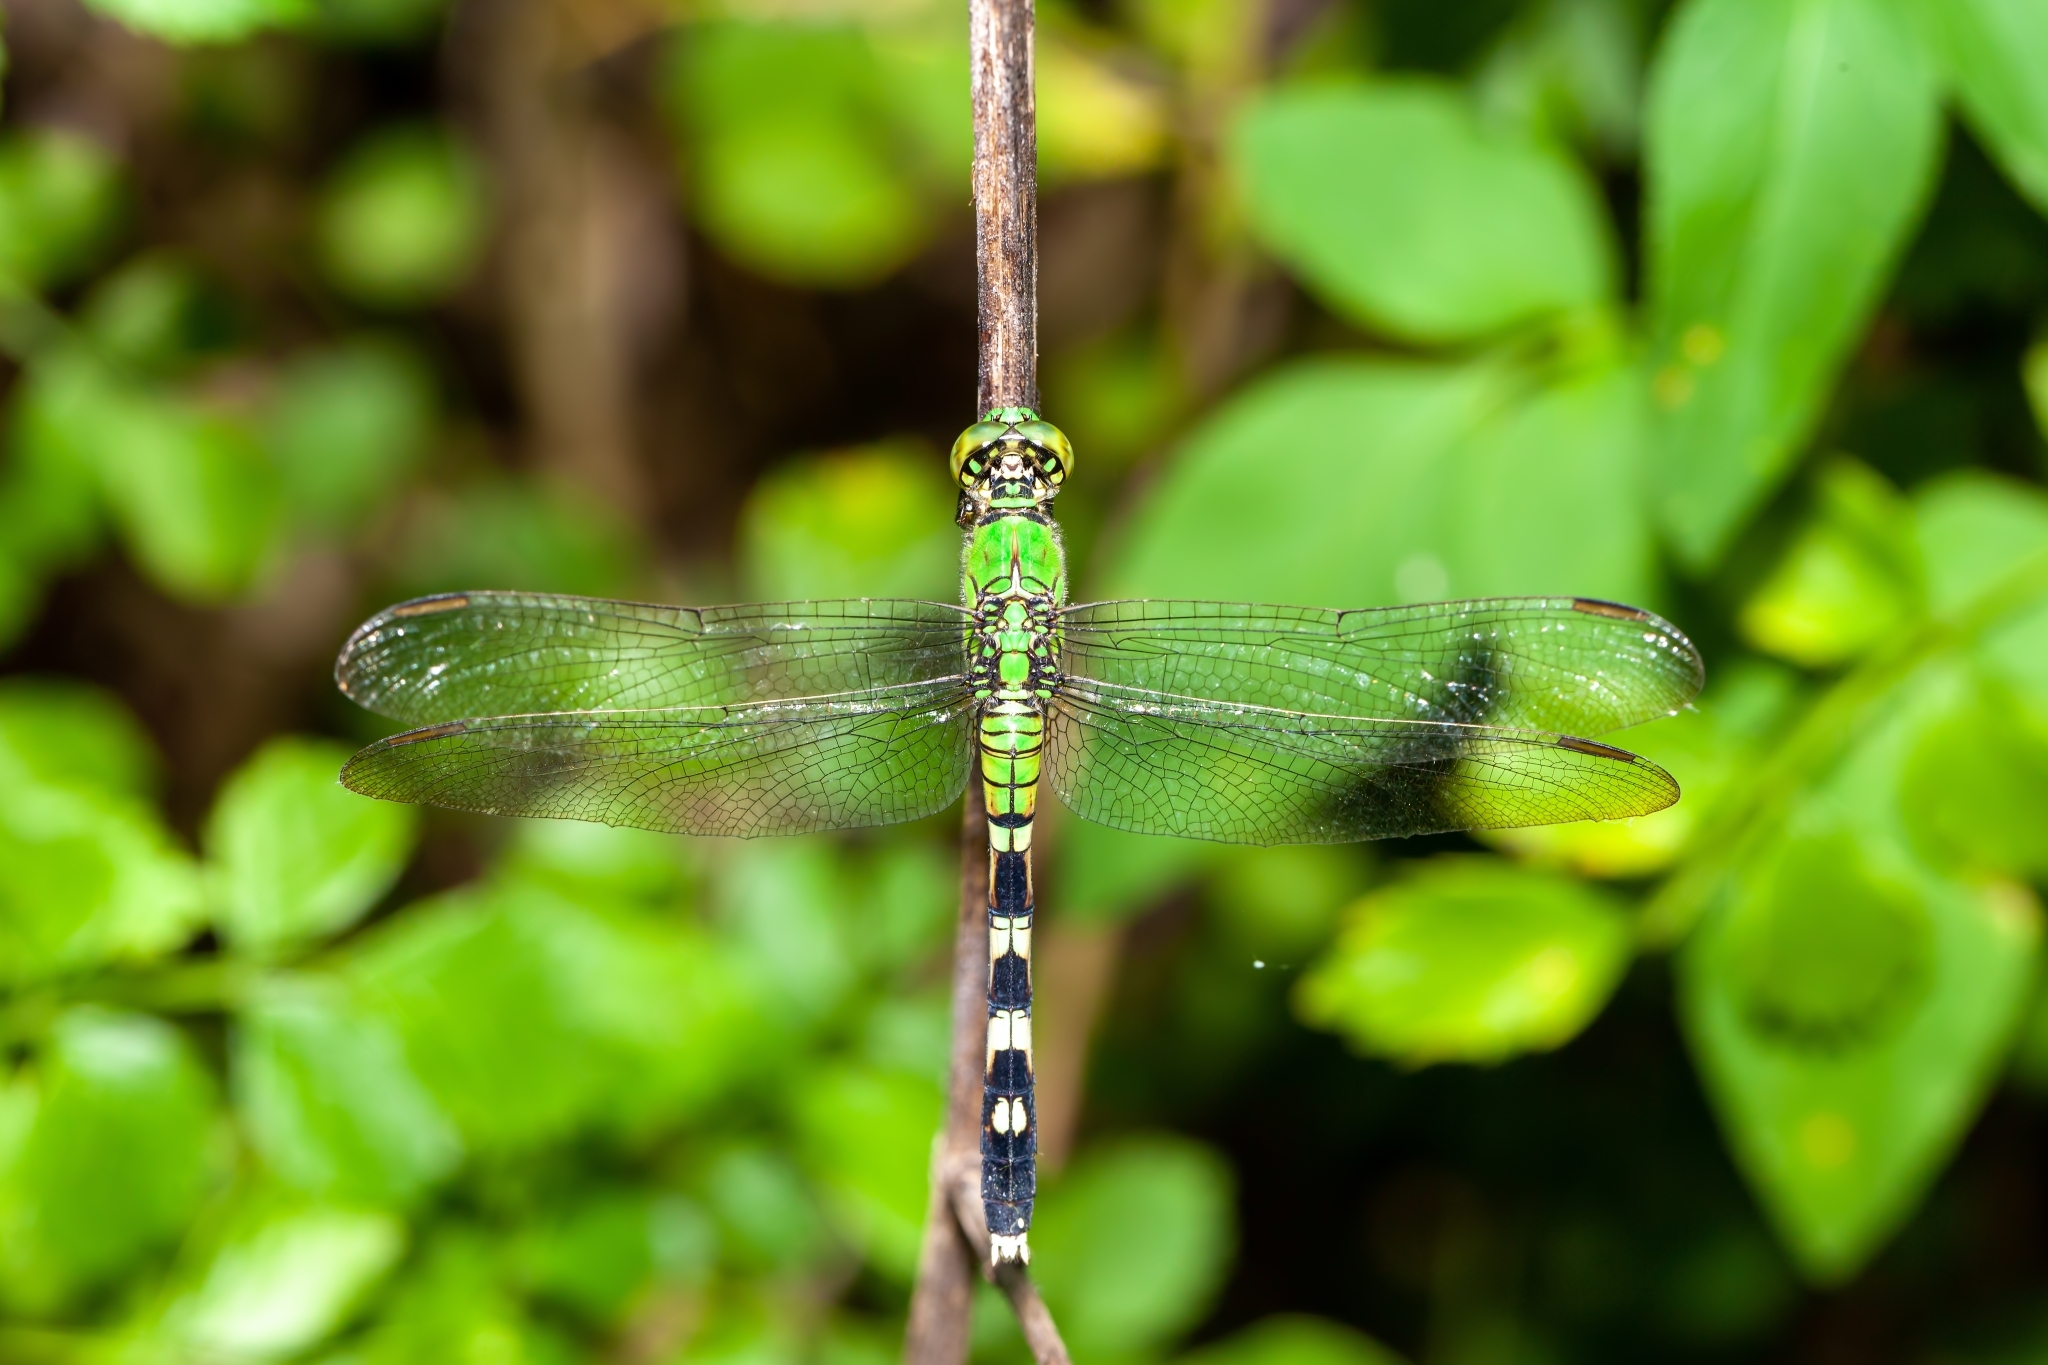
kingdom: Animalia
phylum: Arthropoda
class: Insecta
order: Odonata
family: Libellulidae
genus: Erythemis
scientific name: Erythemis simplicicollis
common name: Eastern pondhawk
